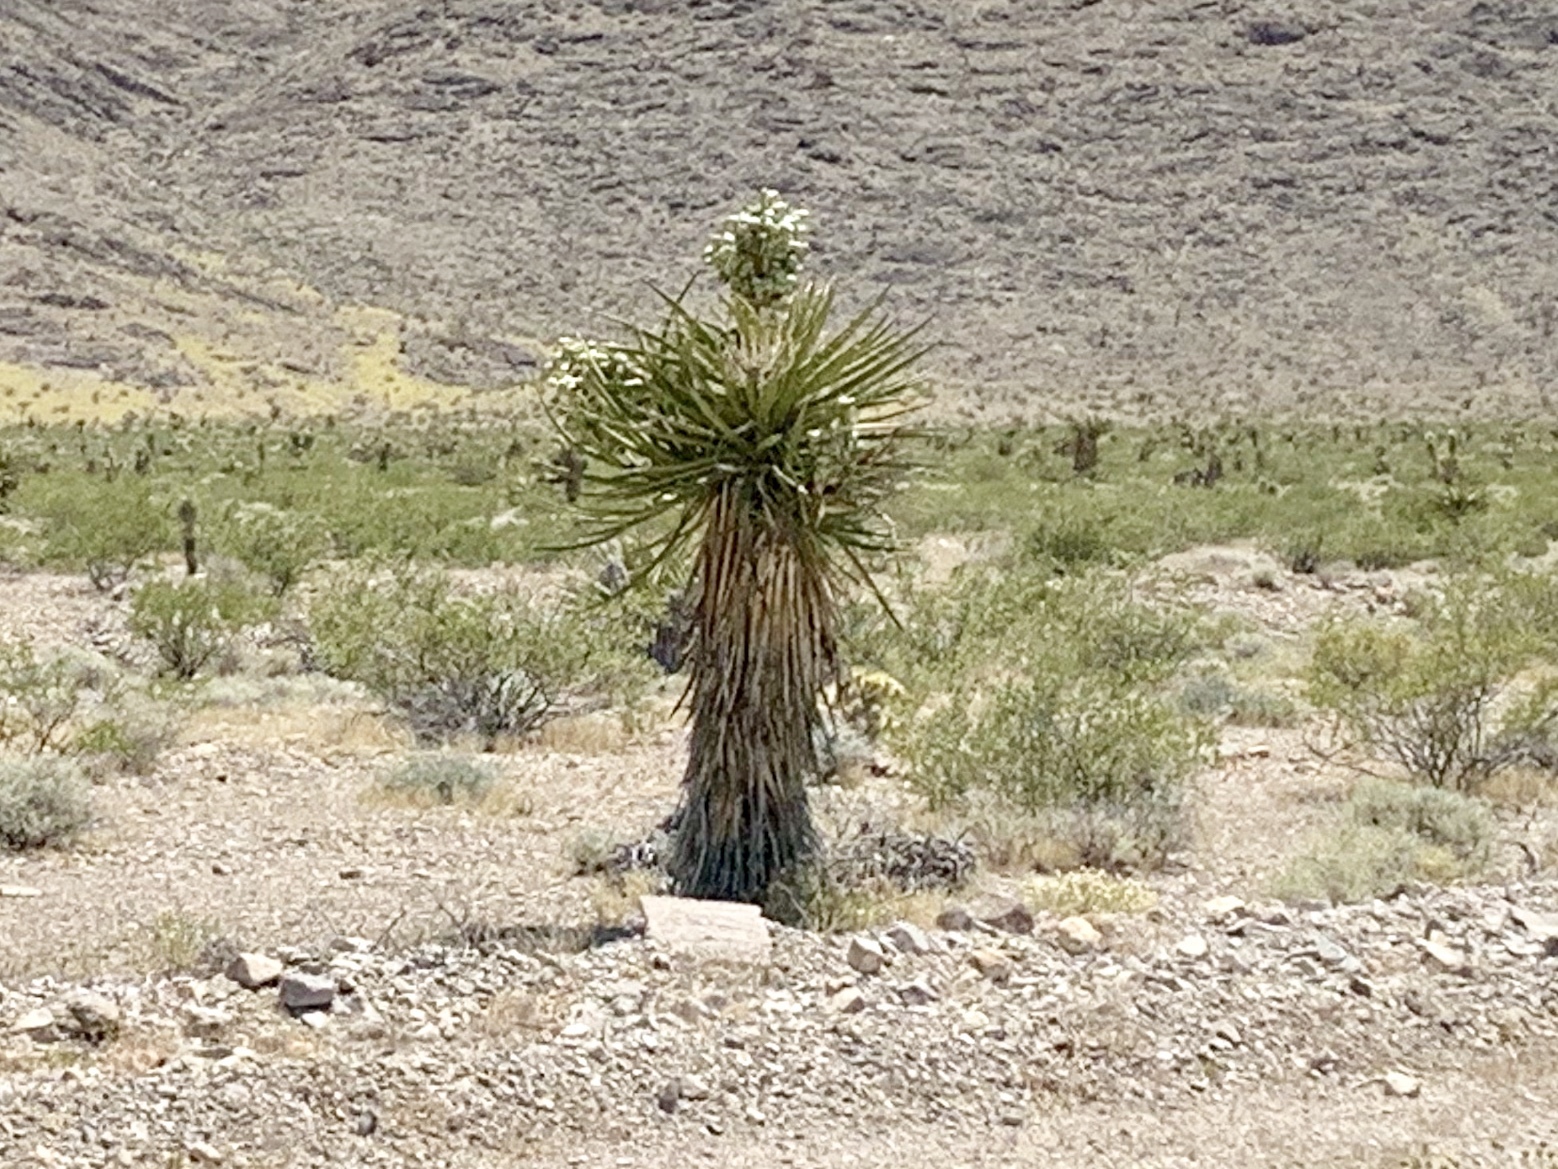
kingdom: Plantae
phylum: Tracheophyta
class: Liliopsida
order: Asparagales
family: Asparagaceae
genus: Yucca
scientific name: Yucca schidigera
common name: Mojave yucca
